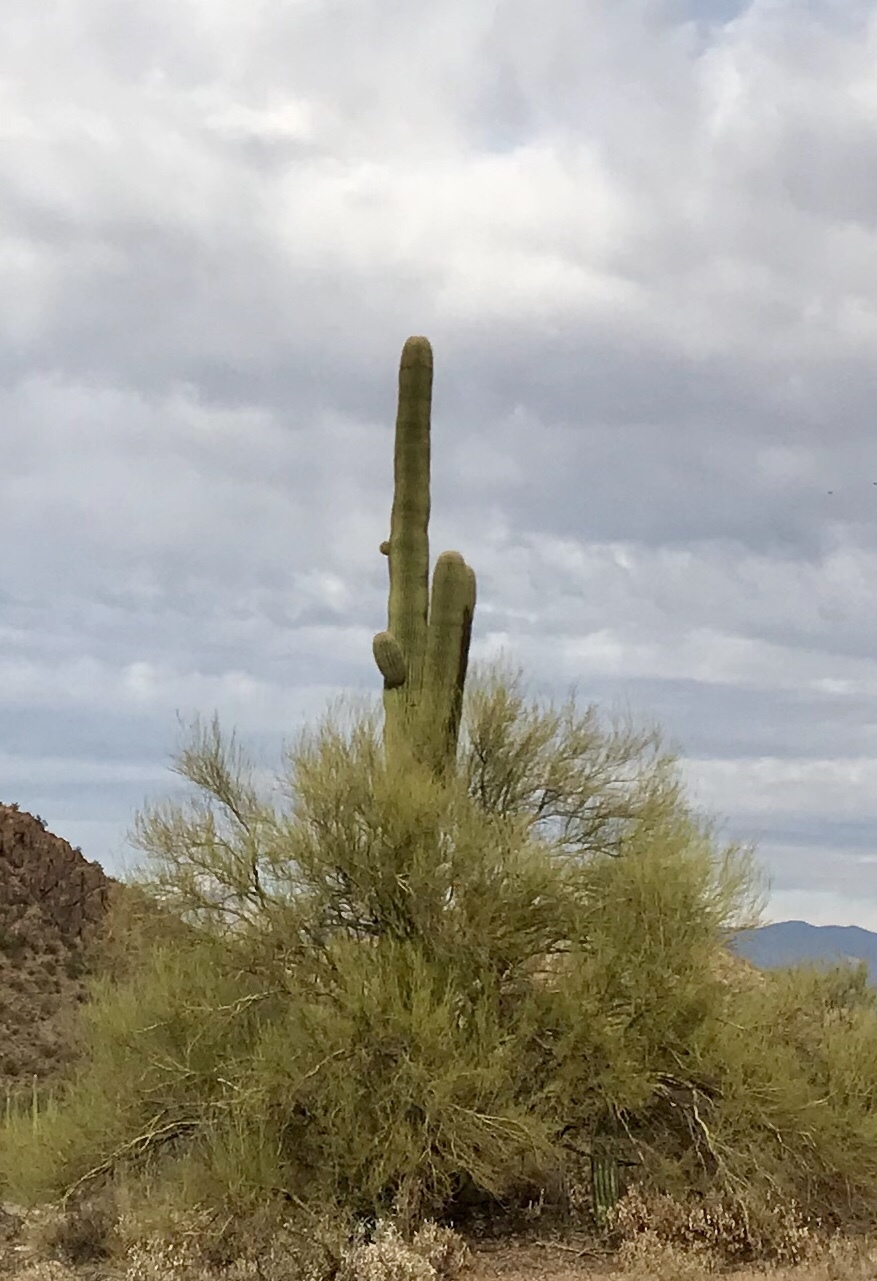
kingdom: Plantae
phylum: Tracheophyta
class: Magnoliopsida
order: Caryophyllales
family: Cactaceae
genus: Carnegiea
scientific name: Carnegiea gigantea
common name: Saguaro
